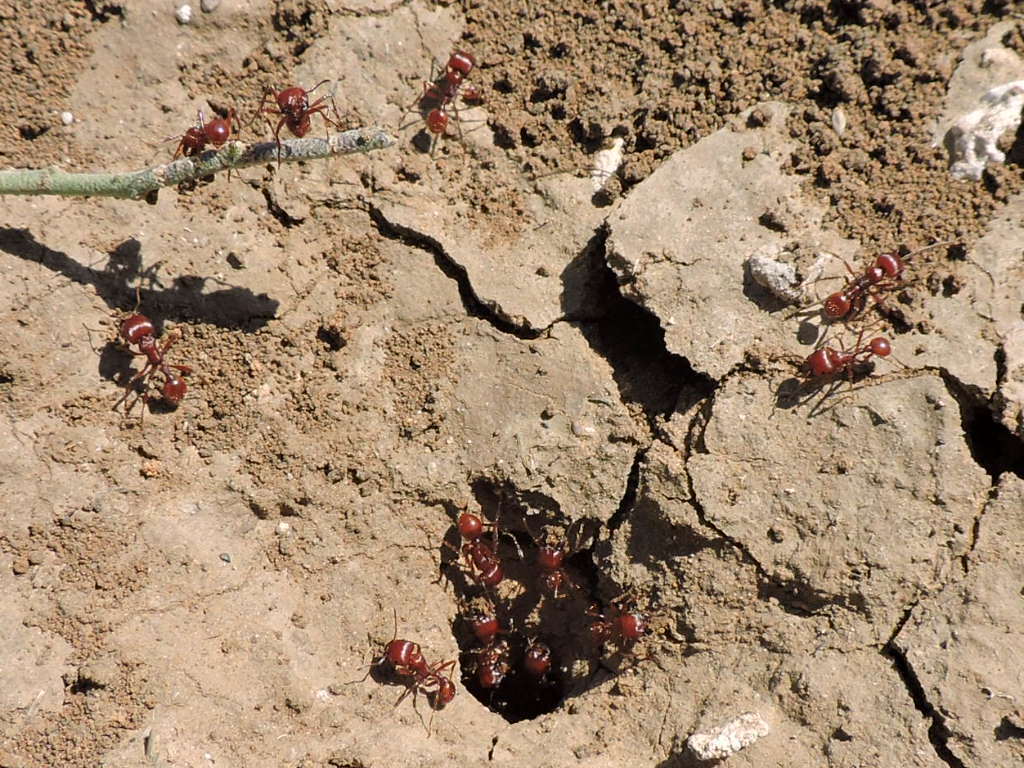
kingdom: Animalia
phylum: Arthropoda
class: Insecta
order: Hymenoptera
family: Formicidae
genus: Pogonomyrmex
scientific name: Pogonomyrmex barbatus
